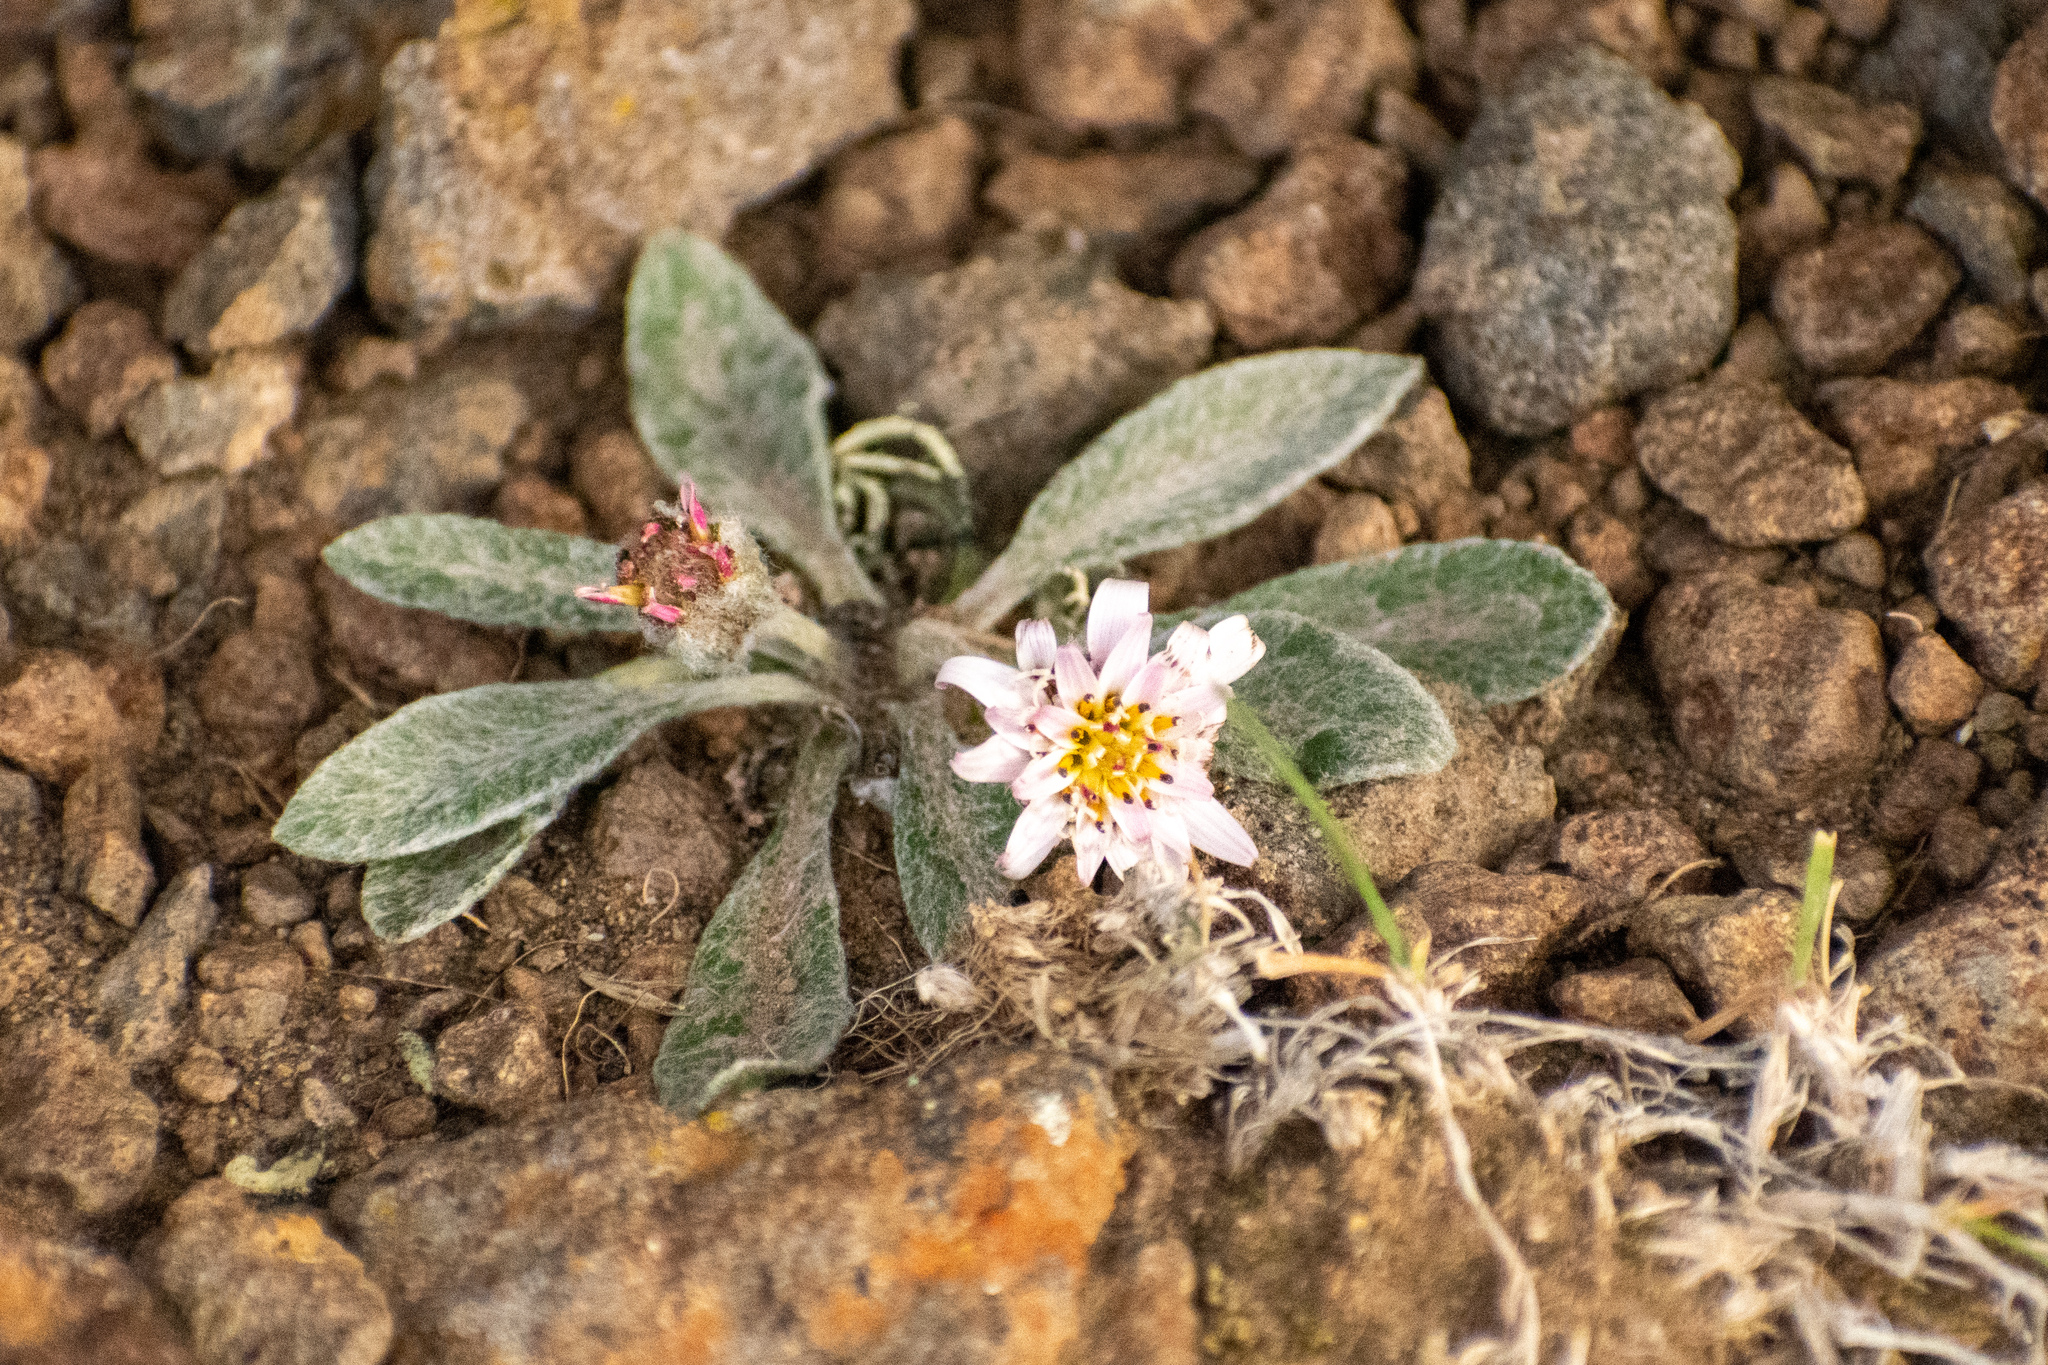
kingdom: Plantae
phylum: Tracheophyta
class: Magnoliopsida
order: Asterales
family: Asteraceae
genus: Leucheria
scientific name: Leucheria diemii
